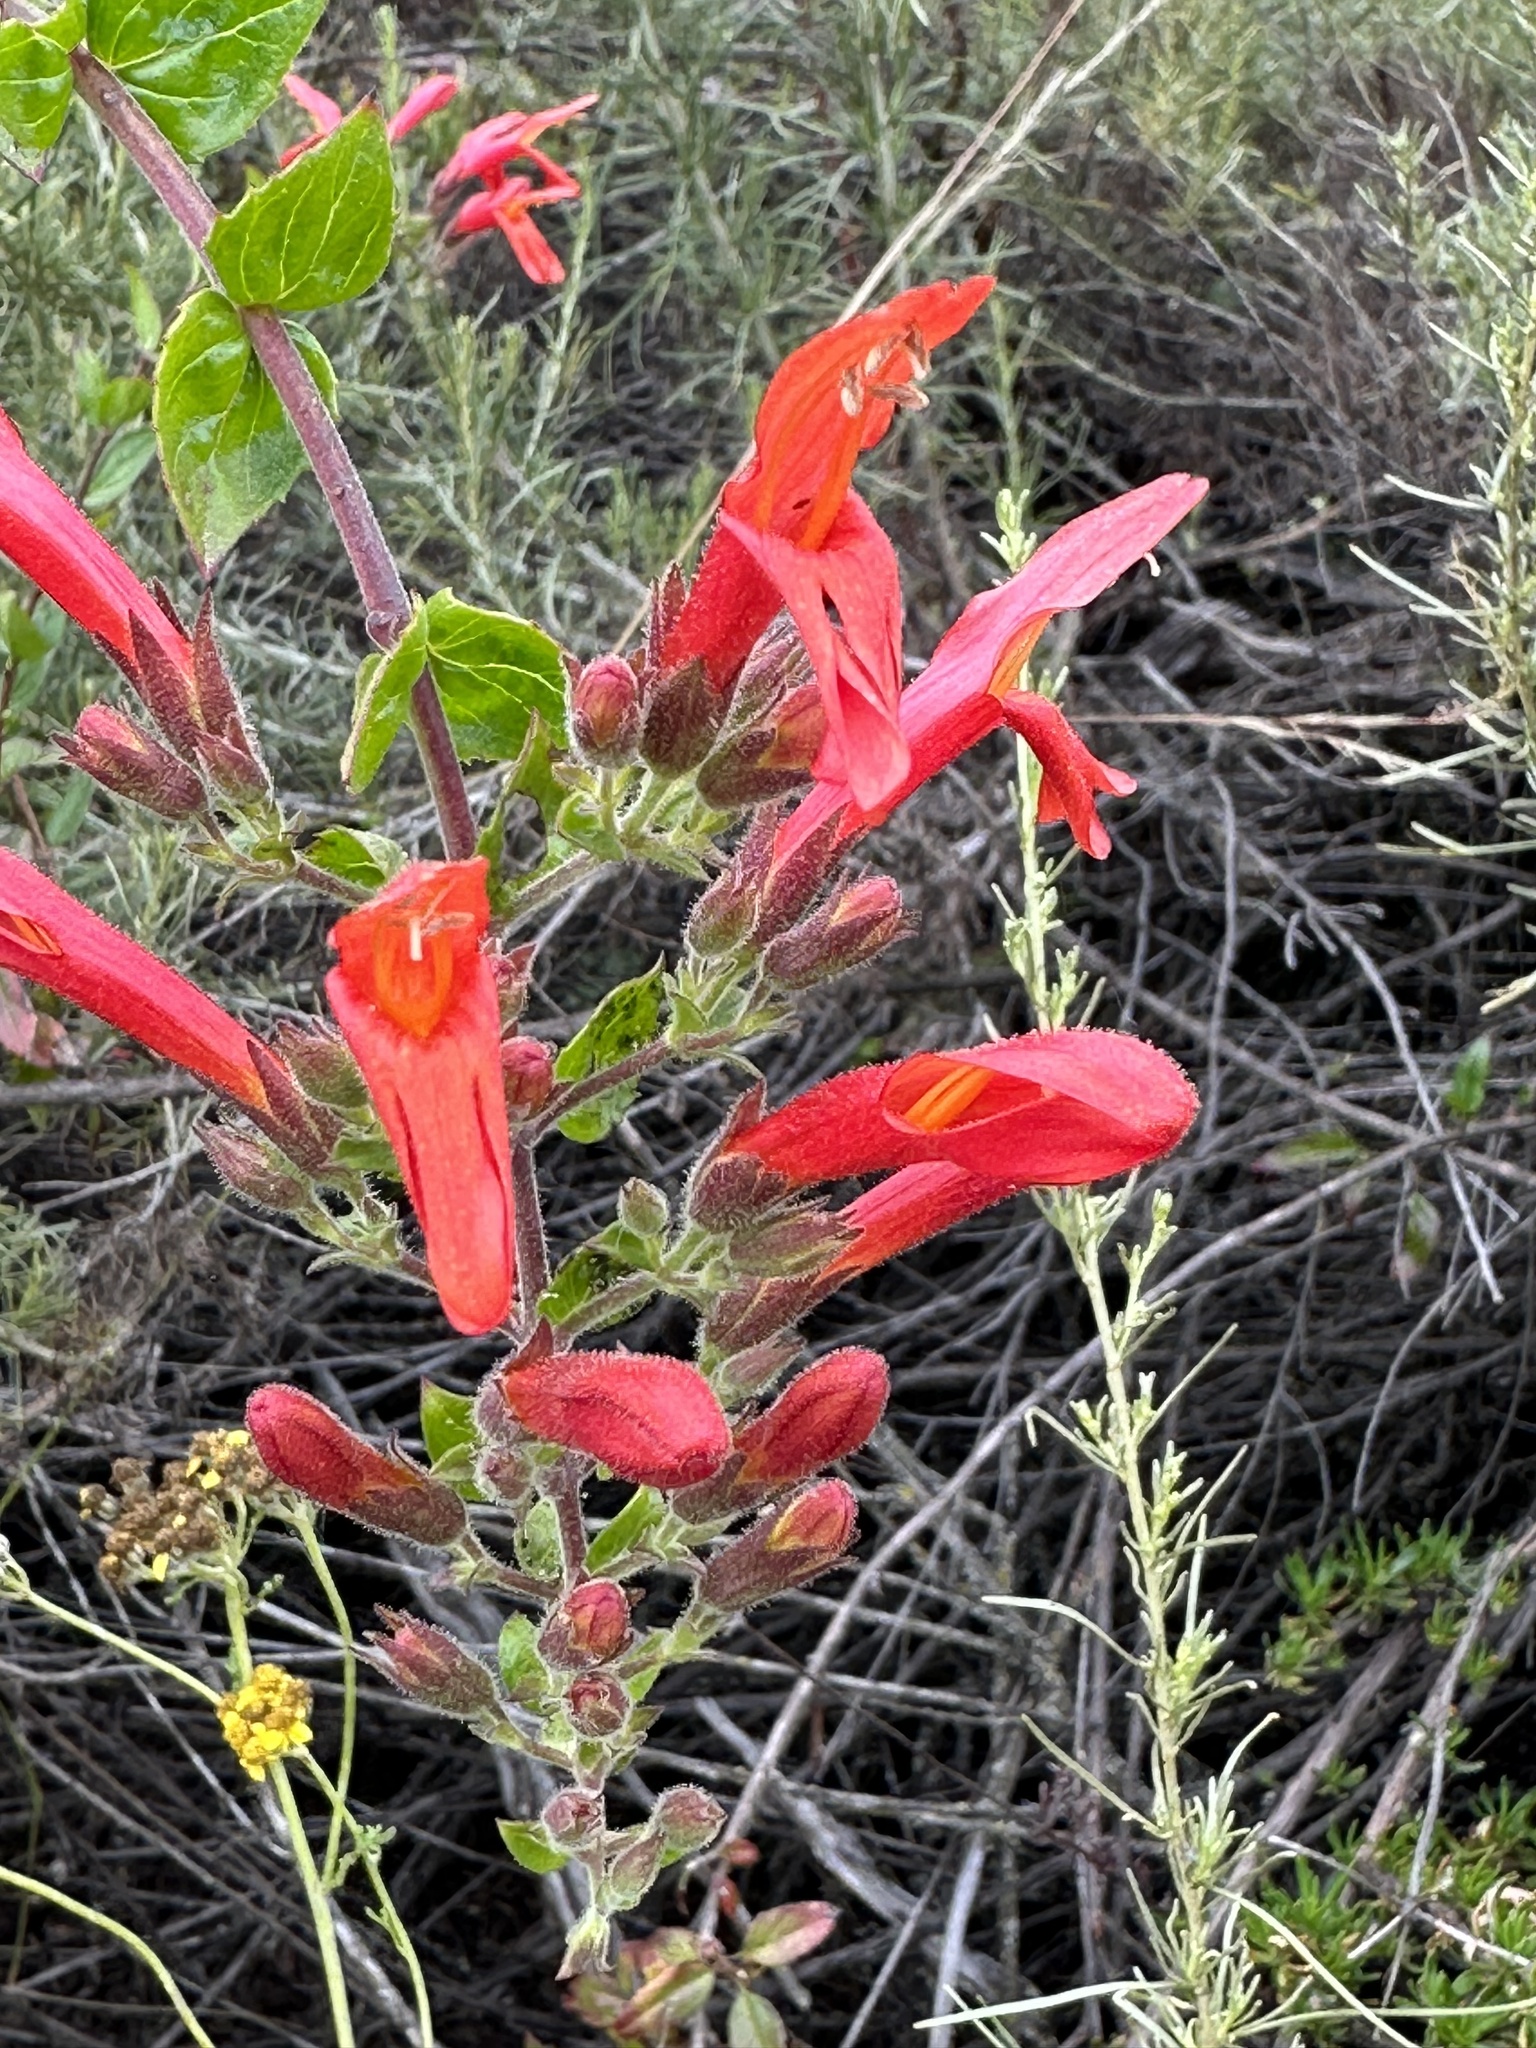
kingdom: Plantae
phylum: Tracheophyta
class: Magnoliopsida
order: Lamiales
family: Plantaginaceae
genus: Keckiella
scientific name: Keckiella cordifolia
